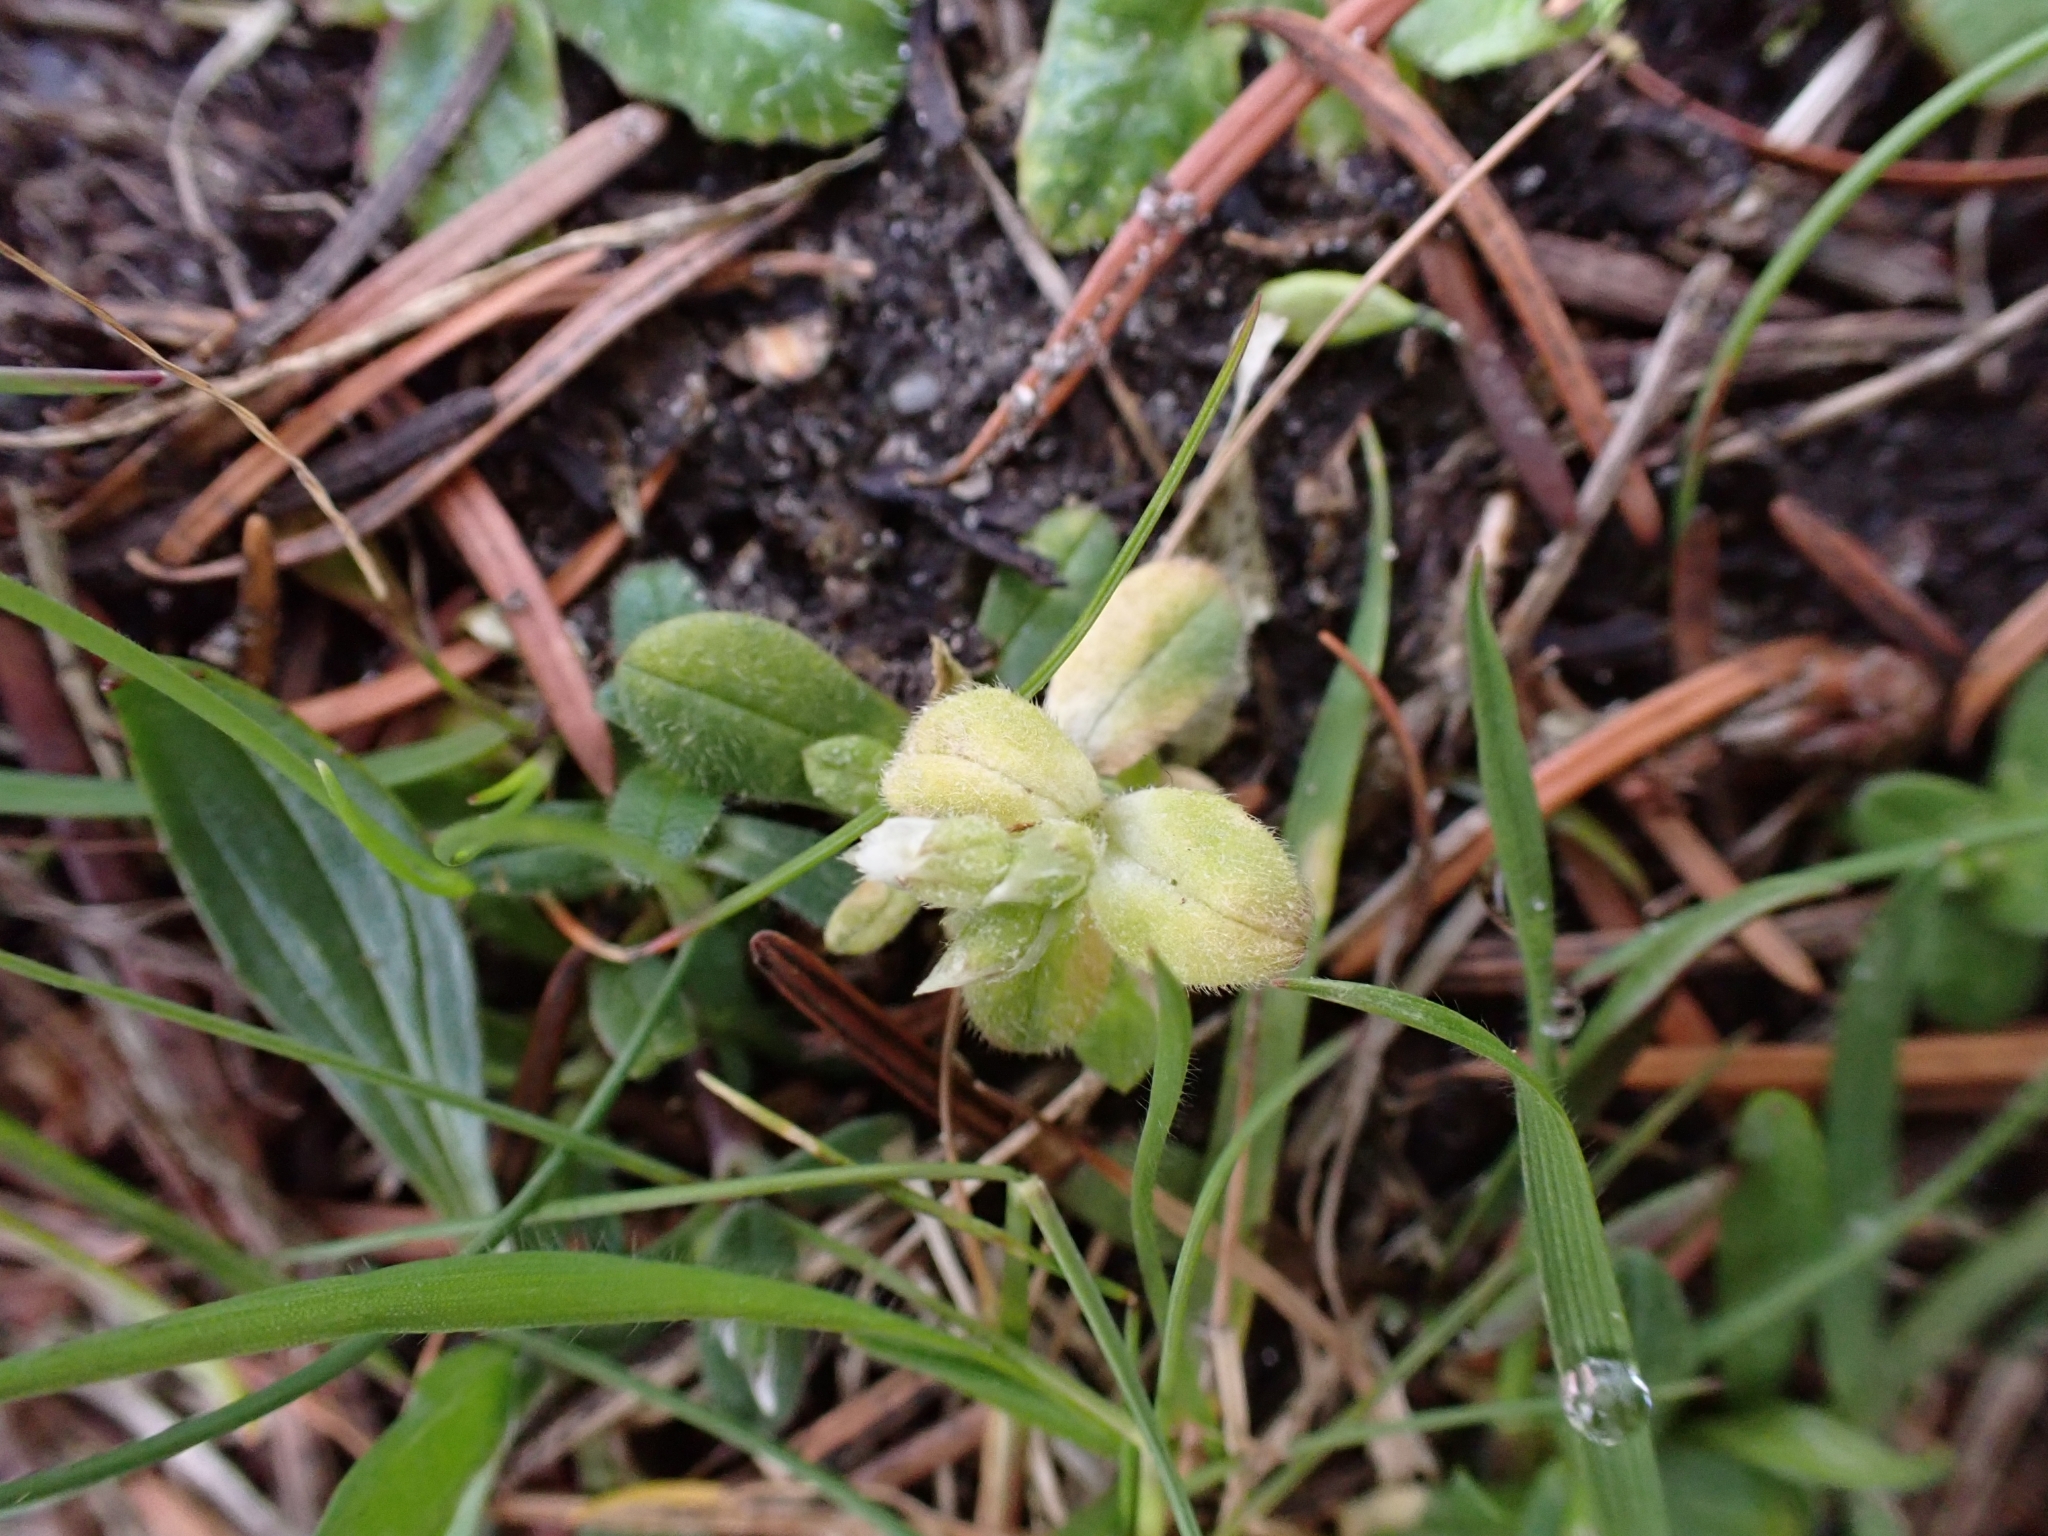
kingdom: Plantae
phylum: Tracheophyta
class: Magnoliopsida
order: Caryophyllales
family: Caryophyllaceae
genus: Cerastium
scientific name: Cerastium semidecandrum
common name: Little mouse-ear
